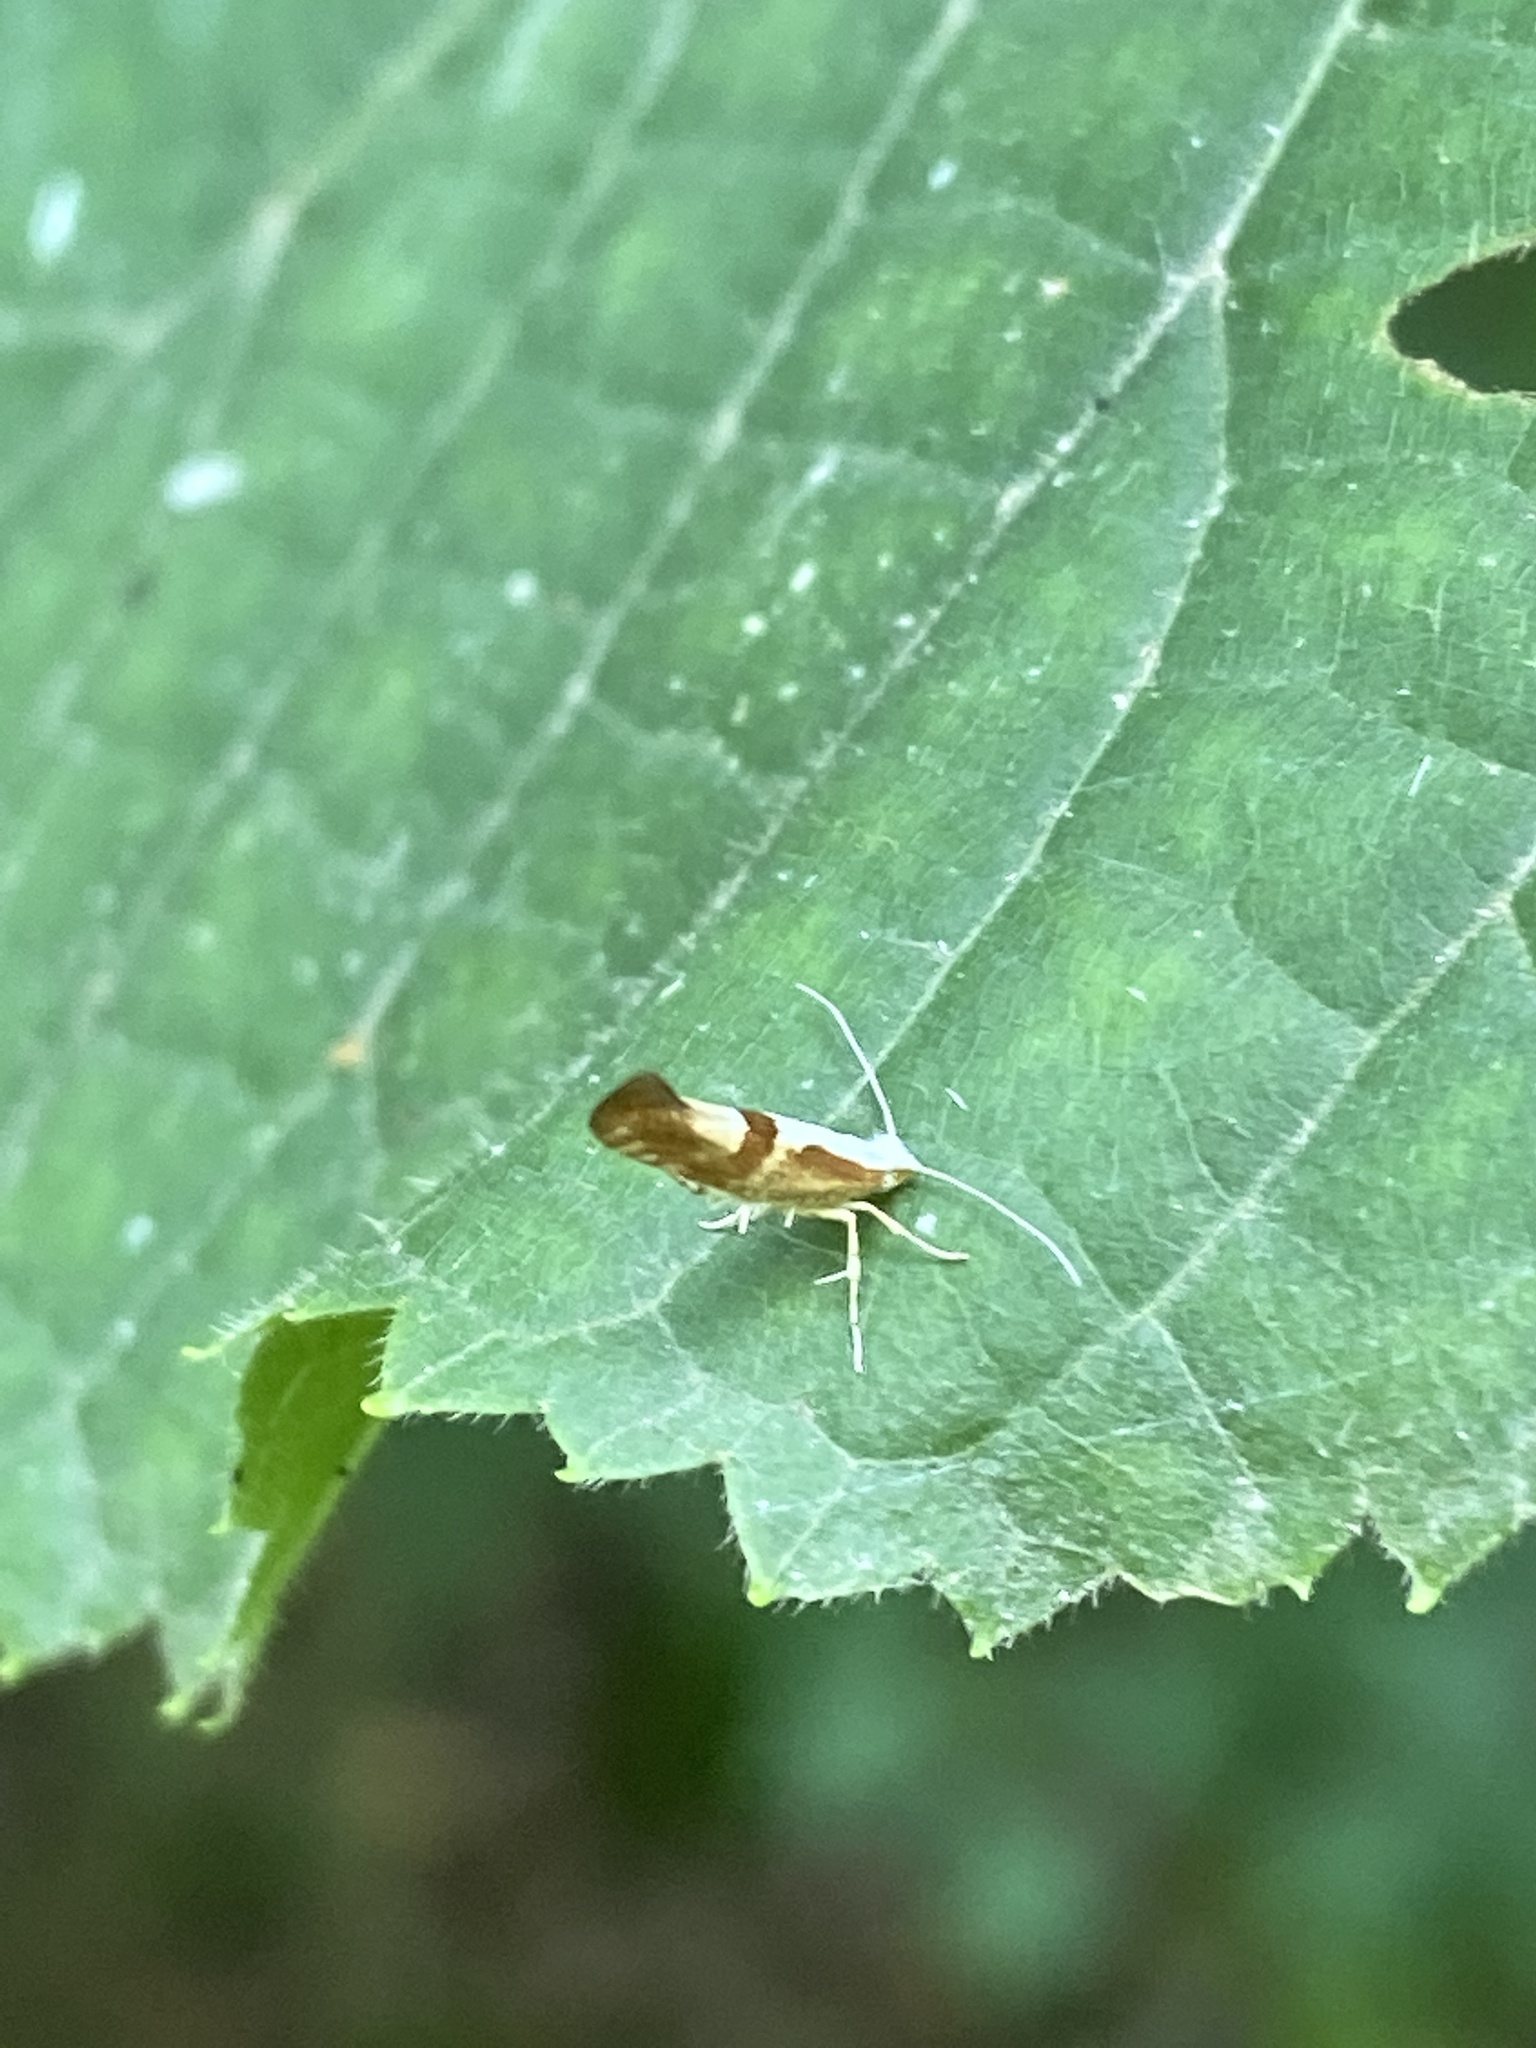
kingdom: Animalia
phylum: Arthropoda
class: Insecta
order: Lepidoptera
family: Argyresthiidae
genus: Argyresthia
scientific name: Argyresthia pruniella
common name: Cherry fruit moth
